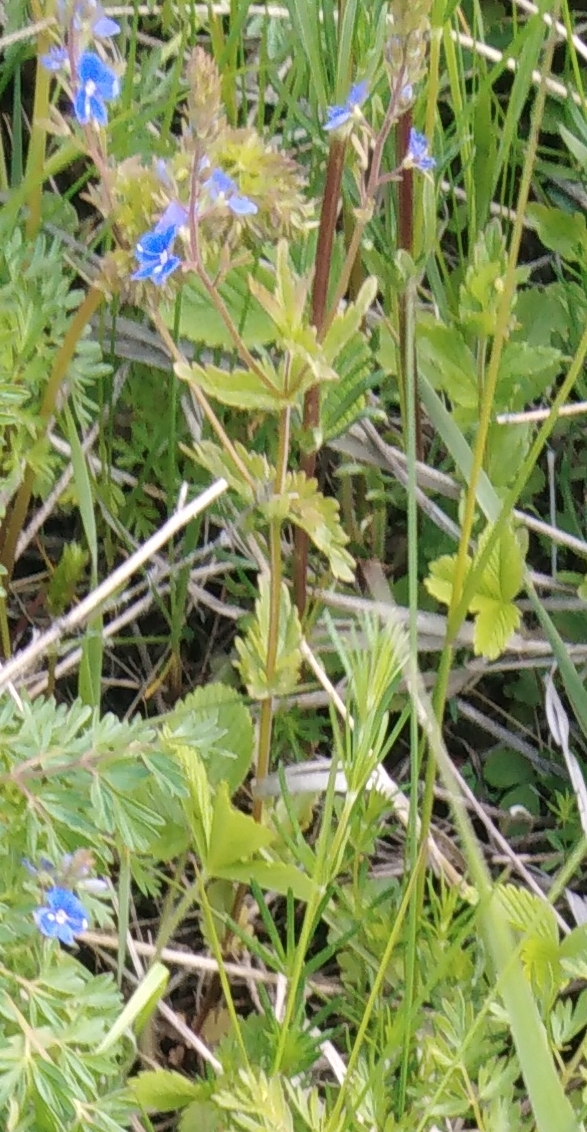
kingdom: Plantae
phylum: Tracheophyta
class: Magnoliopsida
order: Lamiales
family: Plantaginaceae
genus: Veronica
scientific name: Veronica chamaedrys
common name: Germander speedwell
